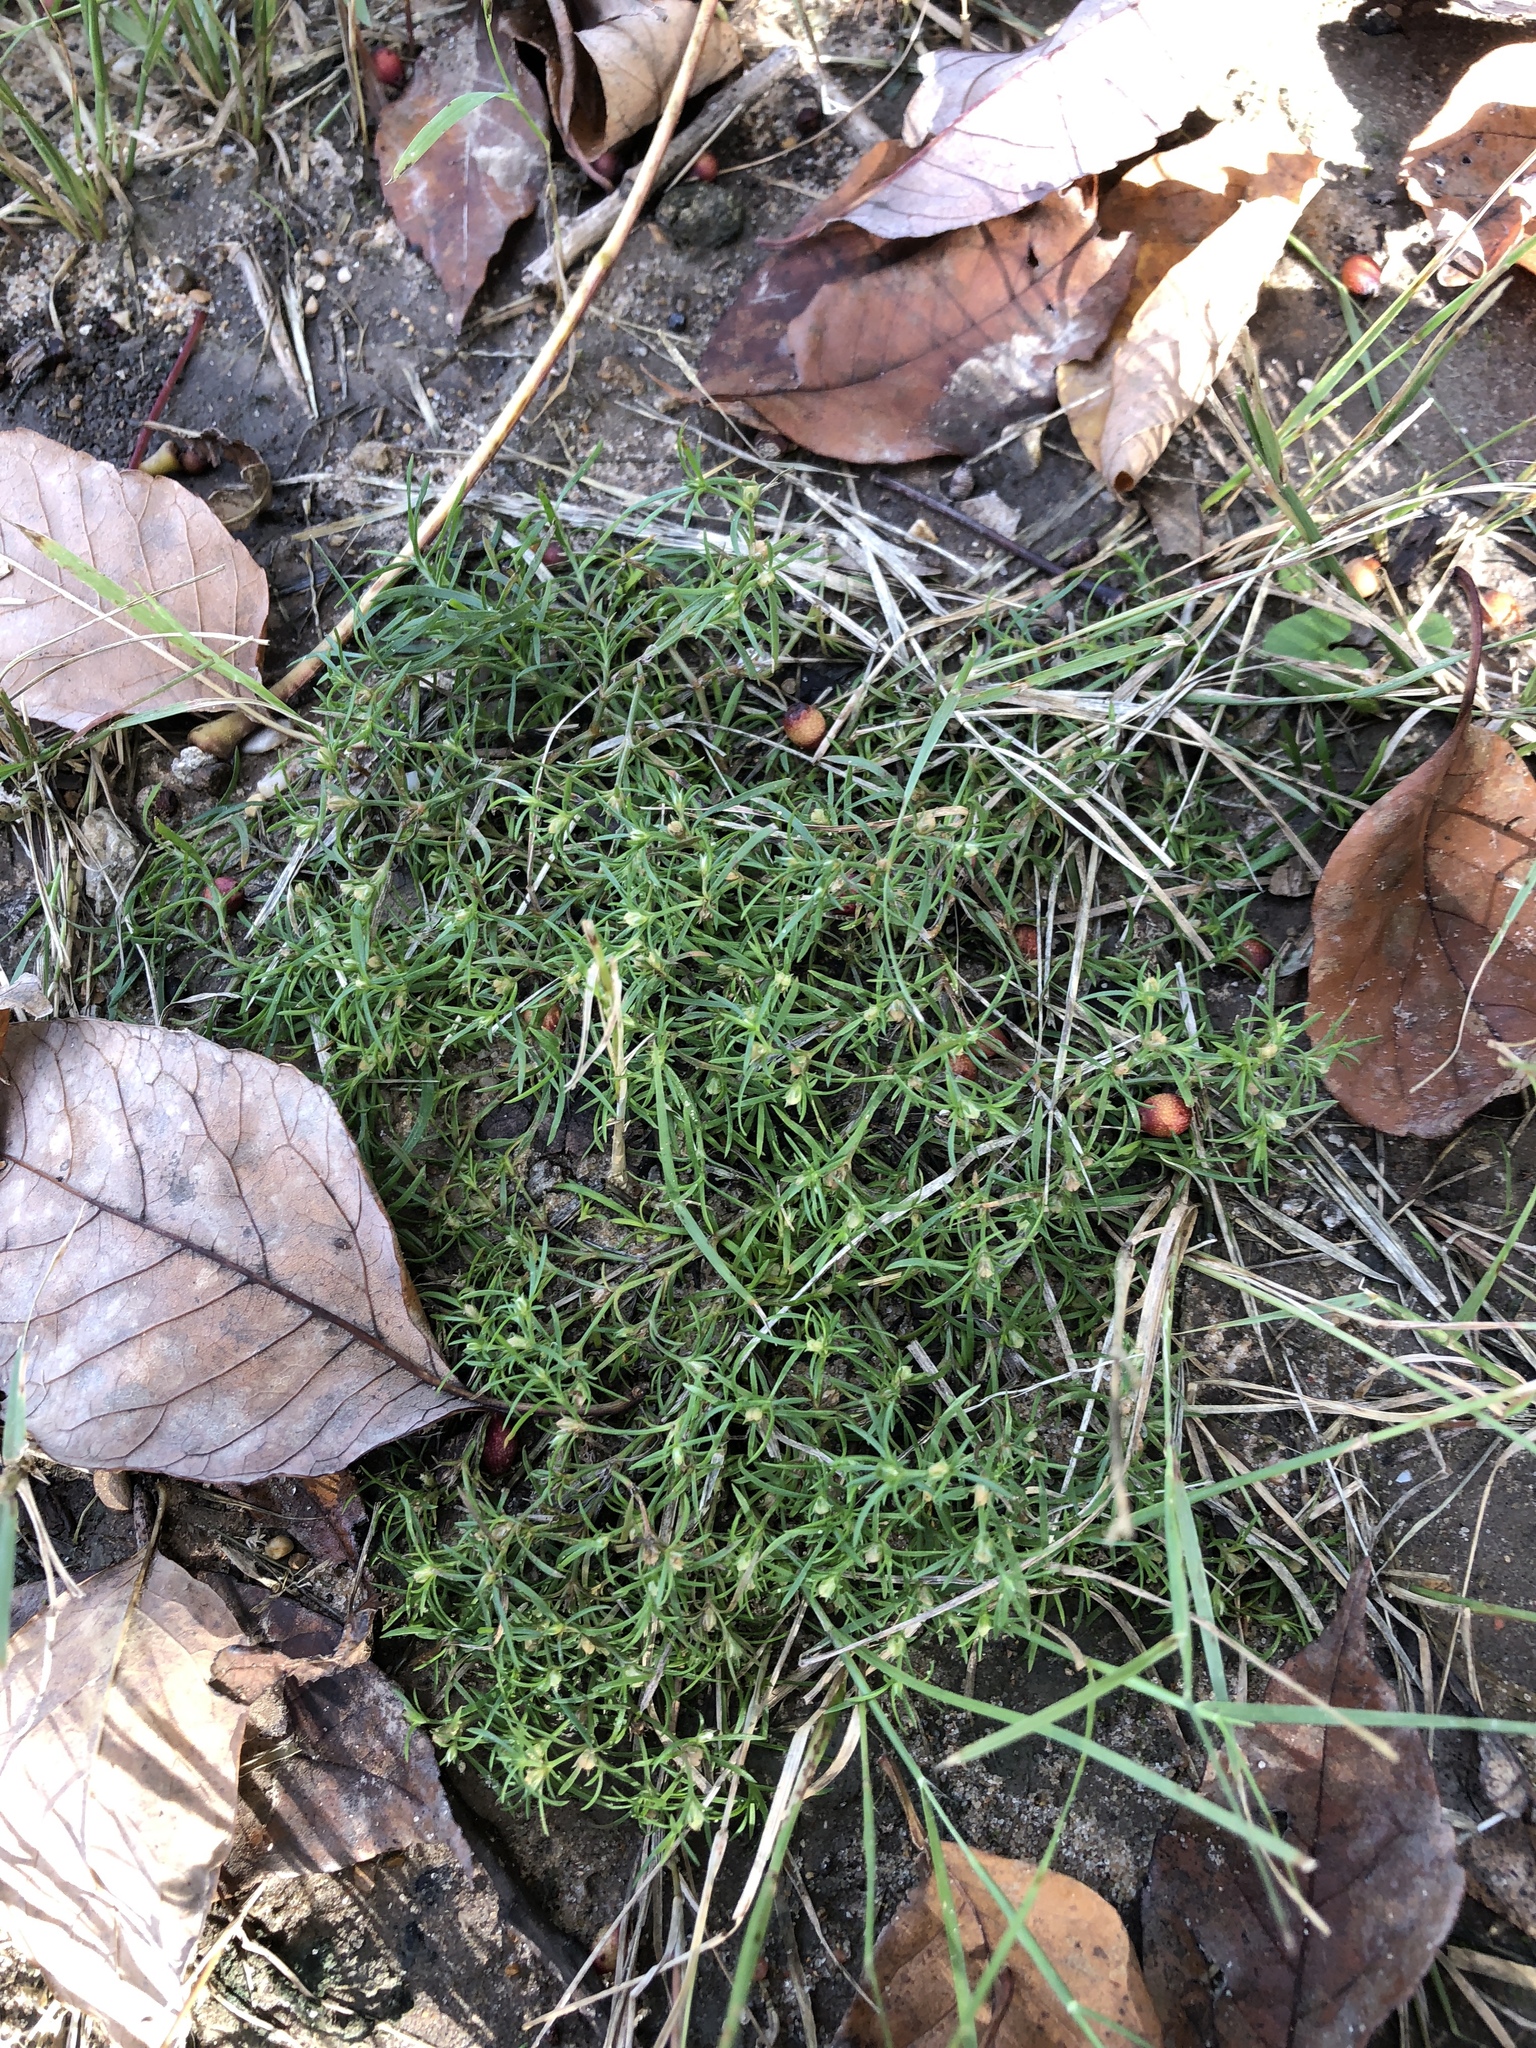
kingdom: Plantae
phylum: Tracheophyta
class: Magnoliopsida
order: Lamiales
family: Tetrachondraceae
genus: Polypremum
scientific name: Polypremum procumbens
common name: Juniper-leaf
